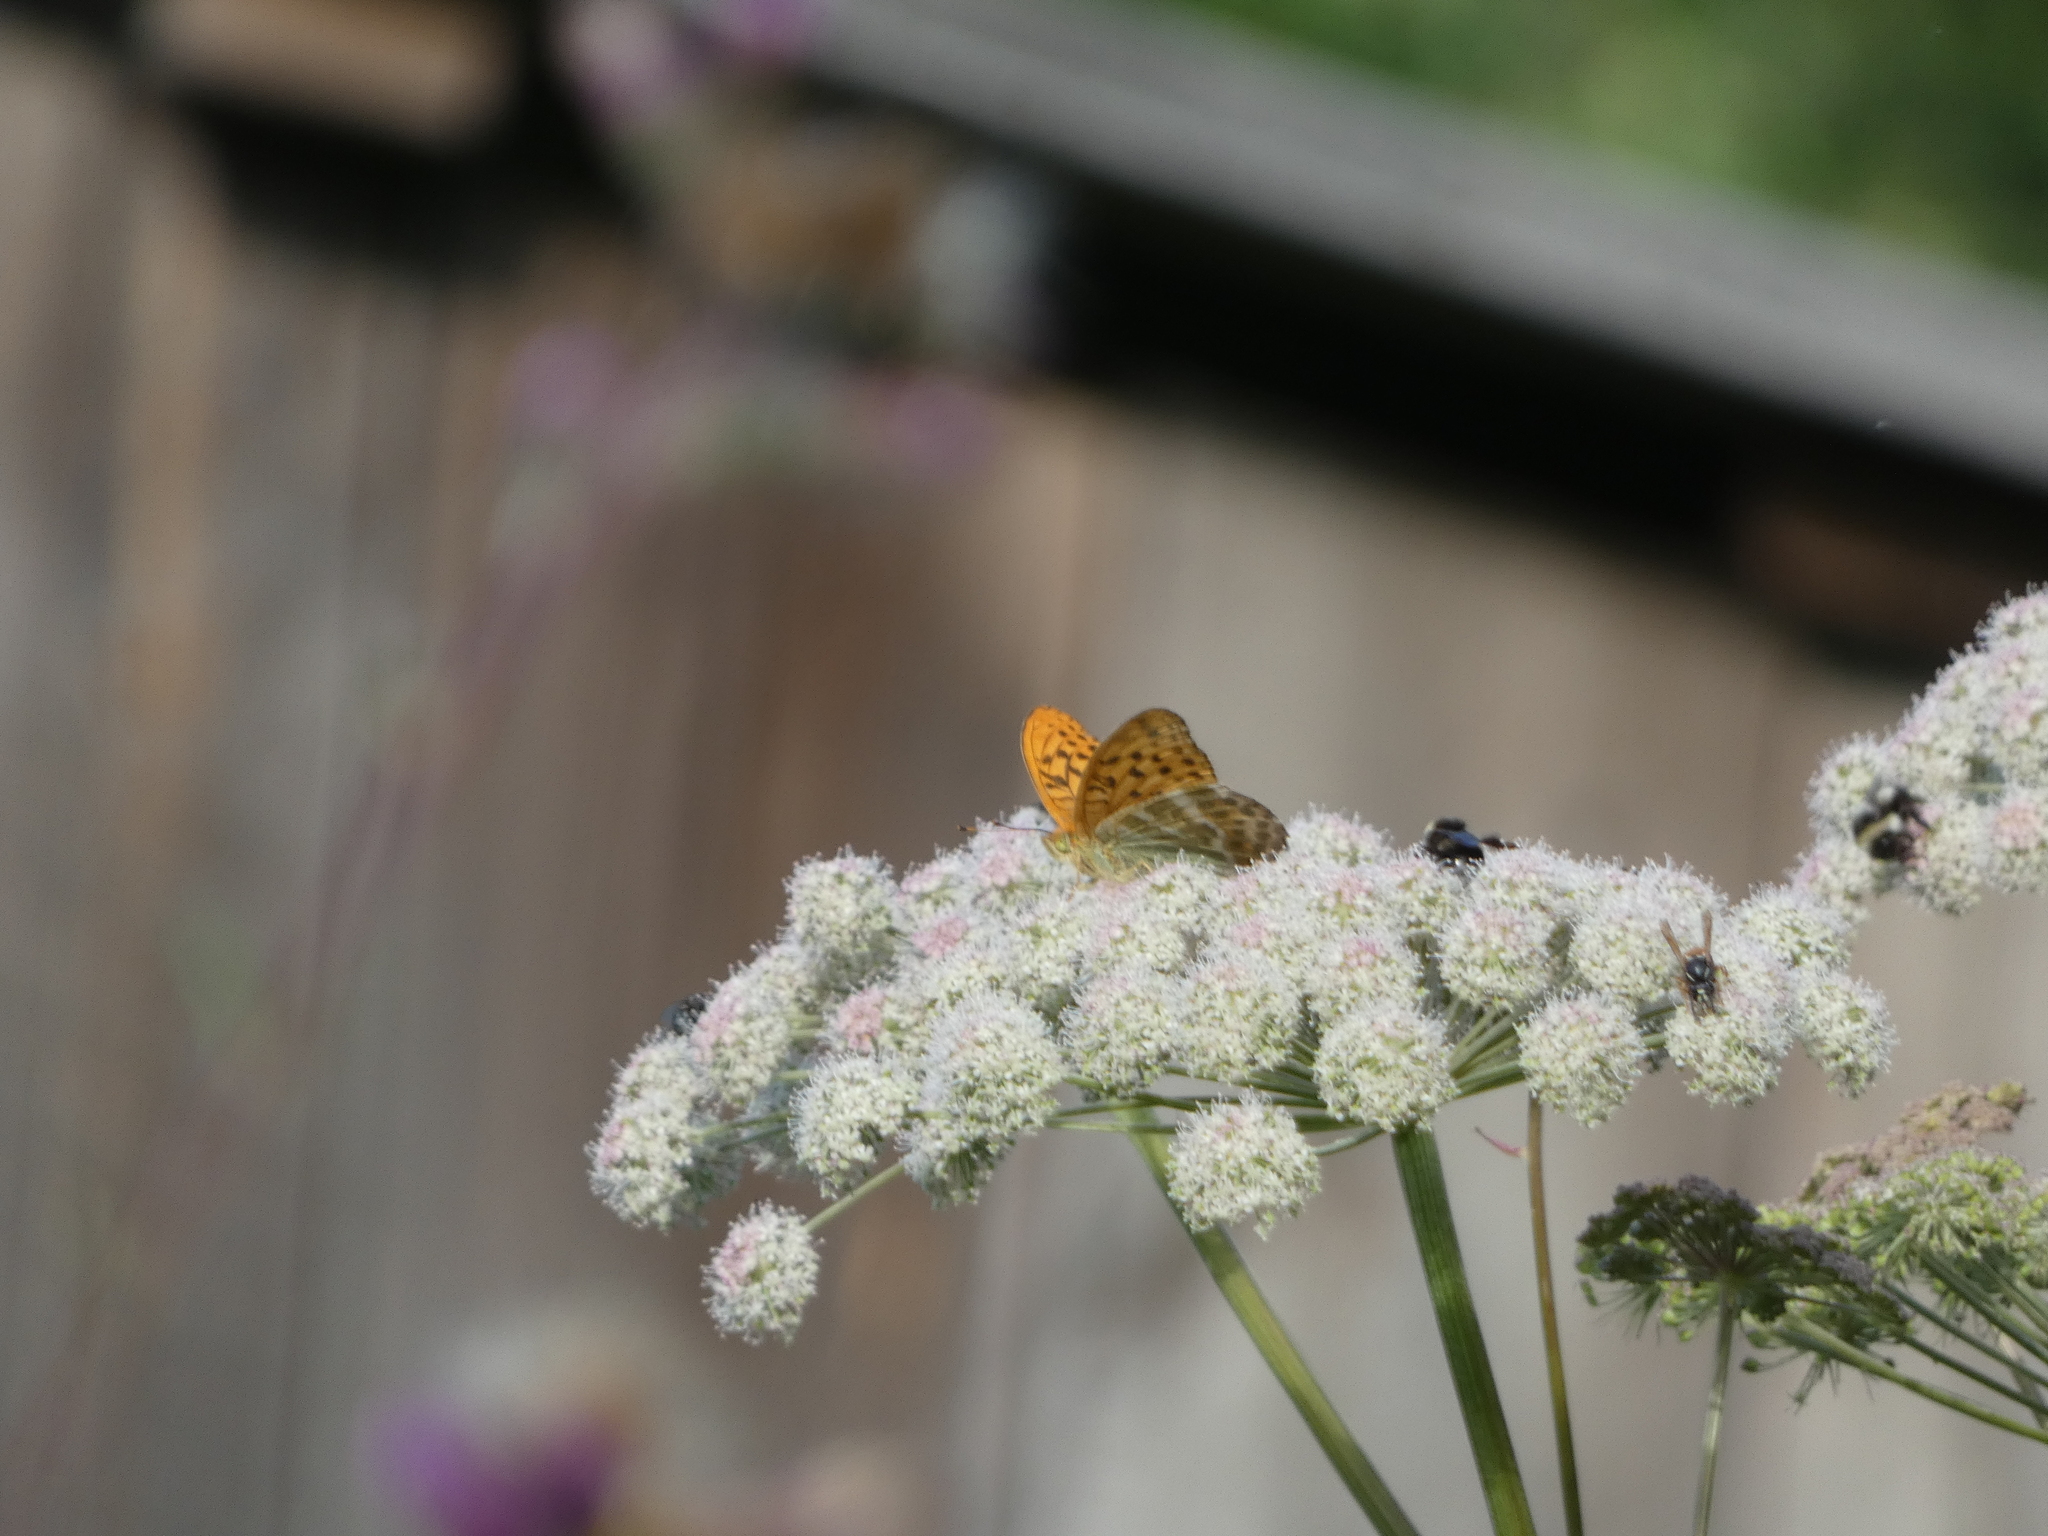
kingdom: Animalia
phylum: Arthropoda
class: Insecta
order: Lepidoptera
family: Nymphalidae
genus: Argynnis
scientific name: Argynnis paphia
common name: Silver-washed fritillary
